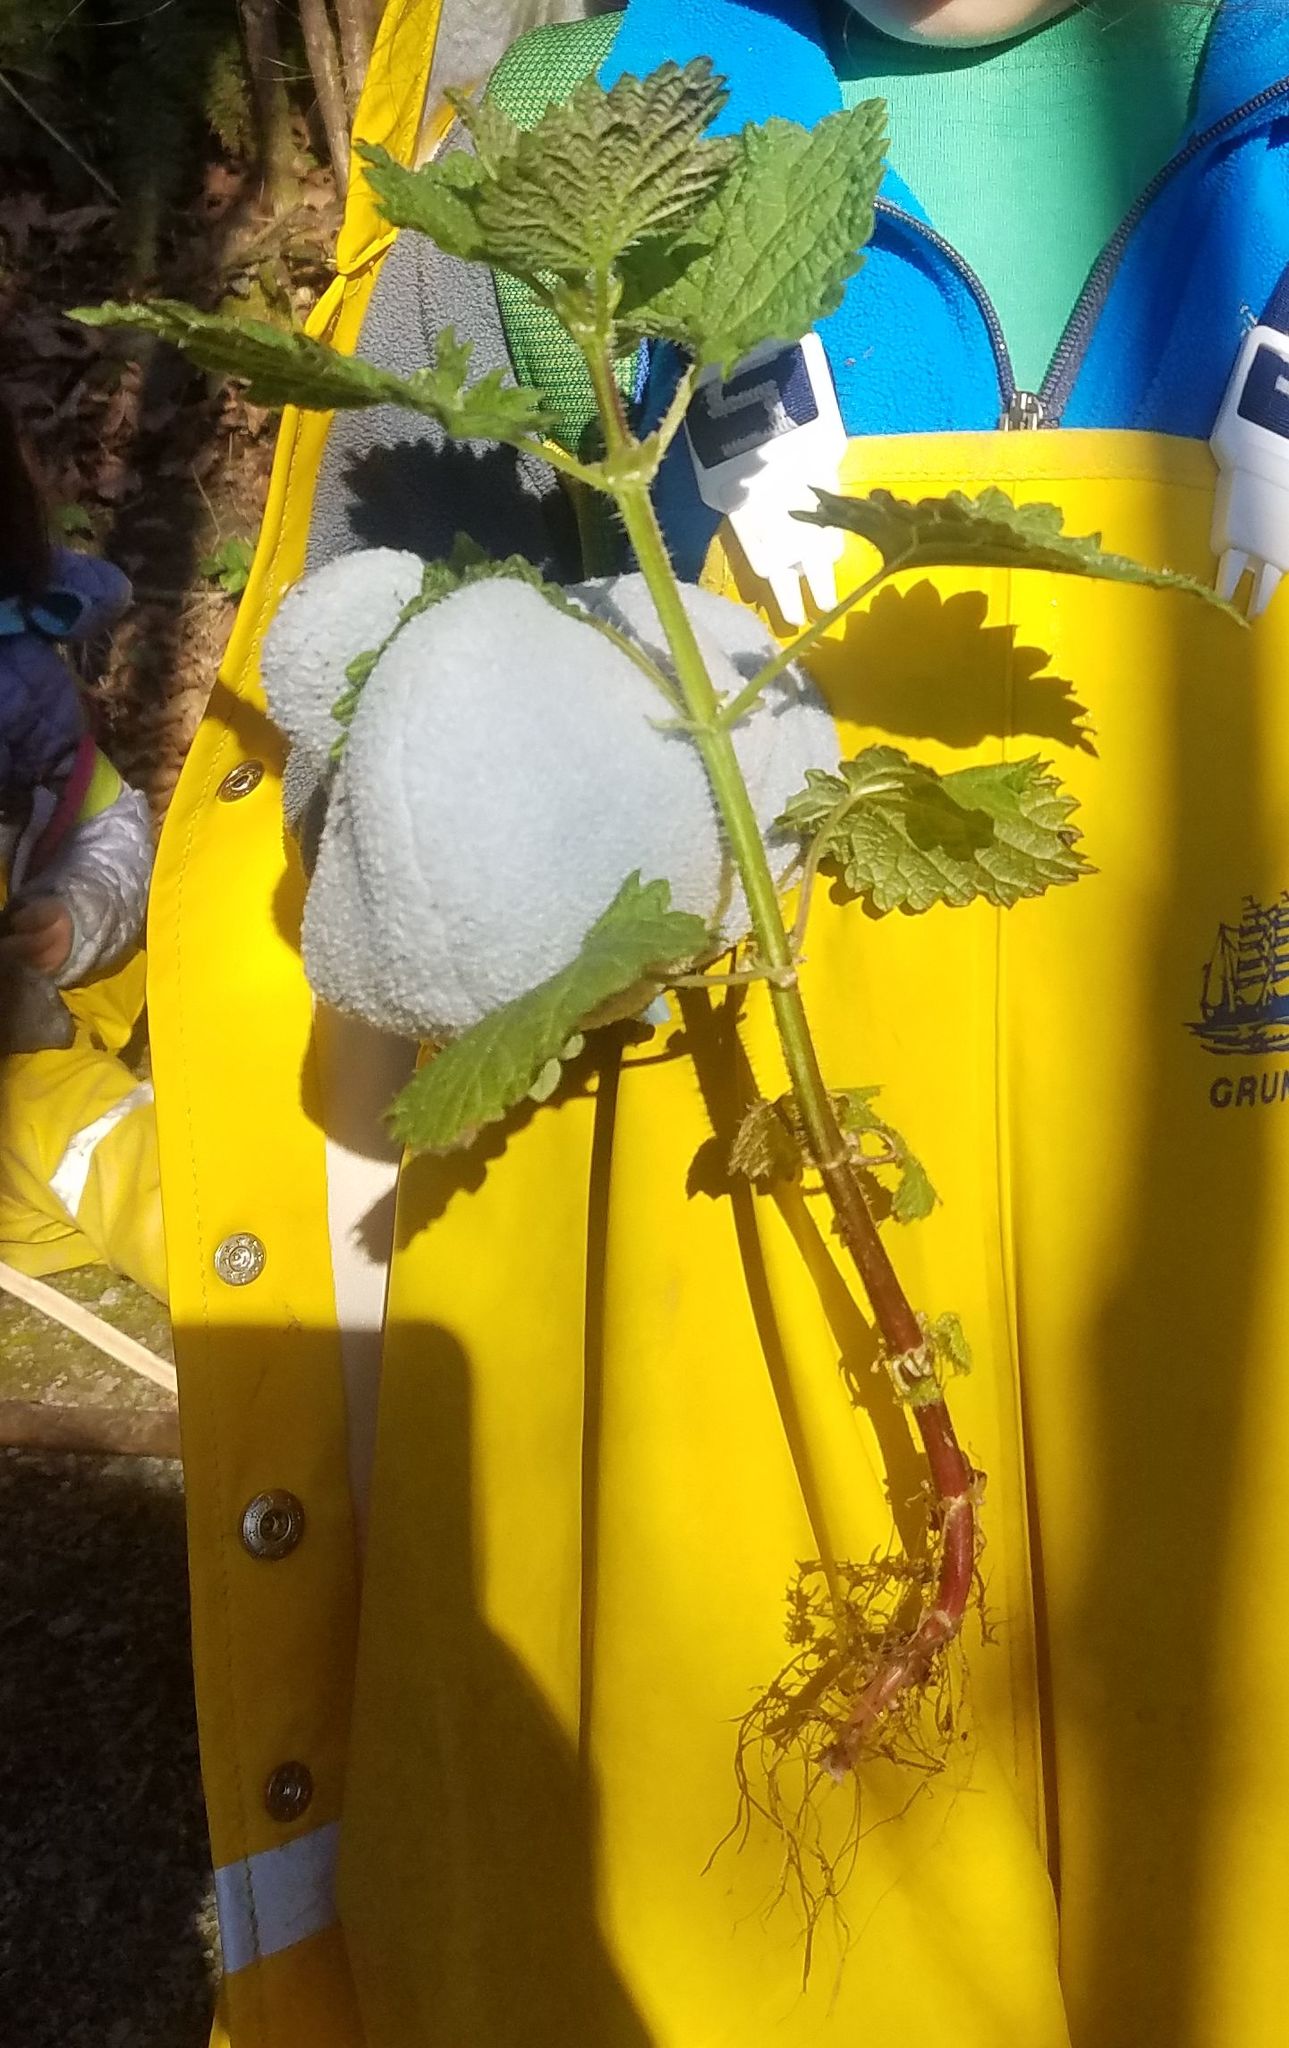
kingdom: Plantae
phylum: Tracheophyta
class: Magnoliopsida
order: Rosales
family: Urticaceae
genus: Urtica
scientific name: Urtica gracilis
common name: Slender stinging nettle
